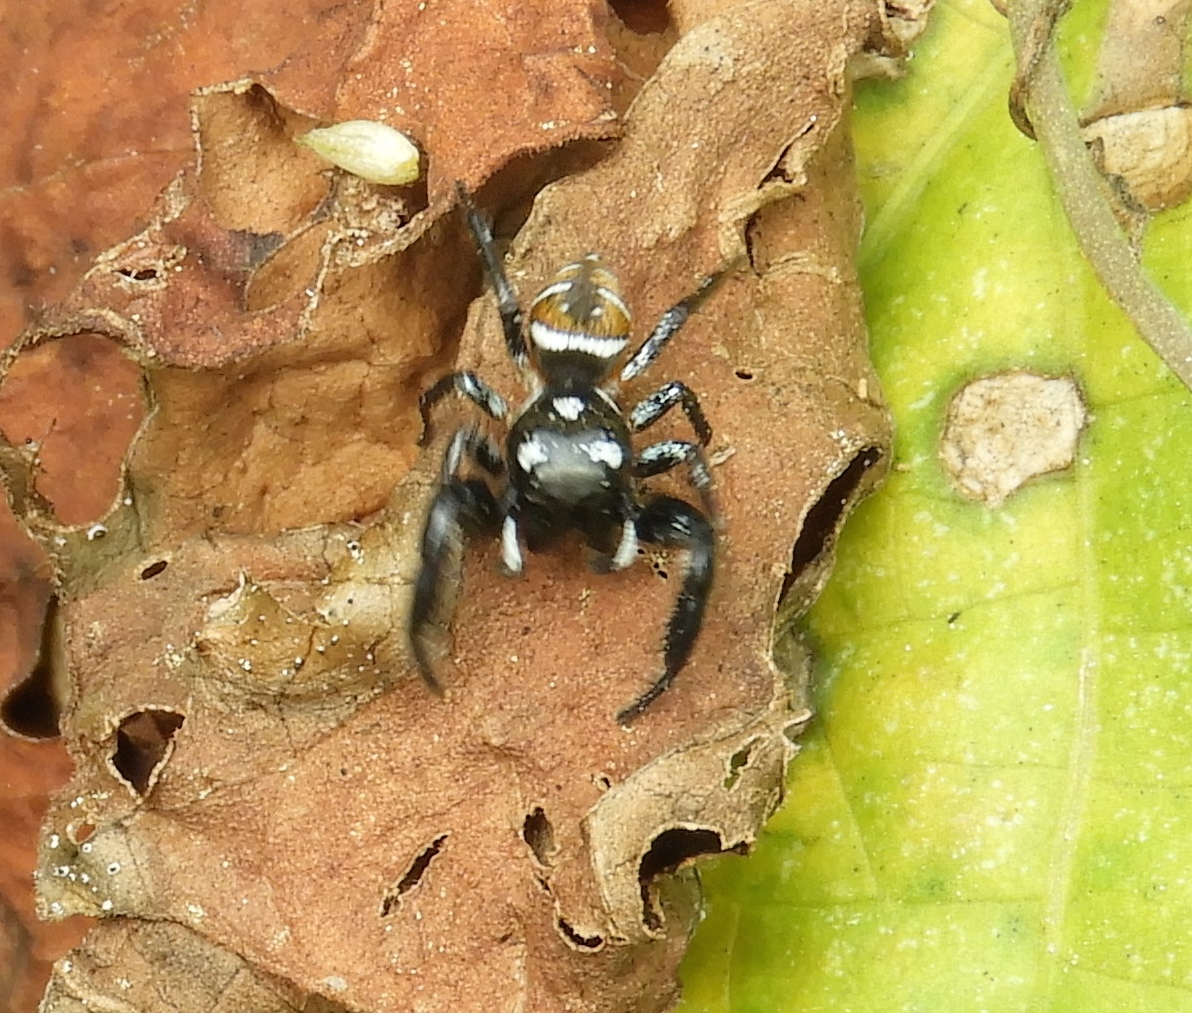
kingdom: Animalia
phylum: Arthropoda
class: Arachnida
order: Araneae
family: Salticidae
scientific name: Salticidae
